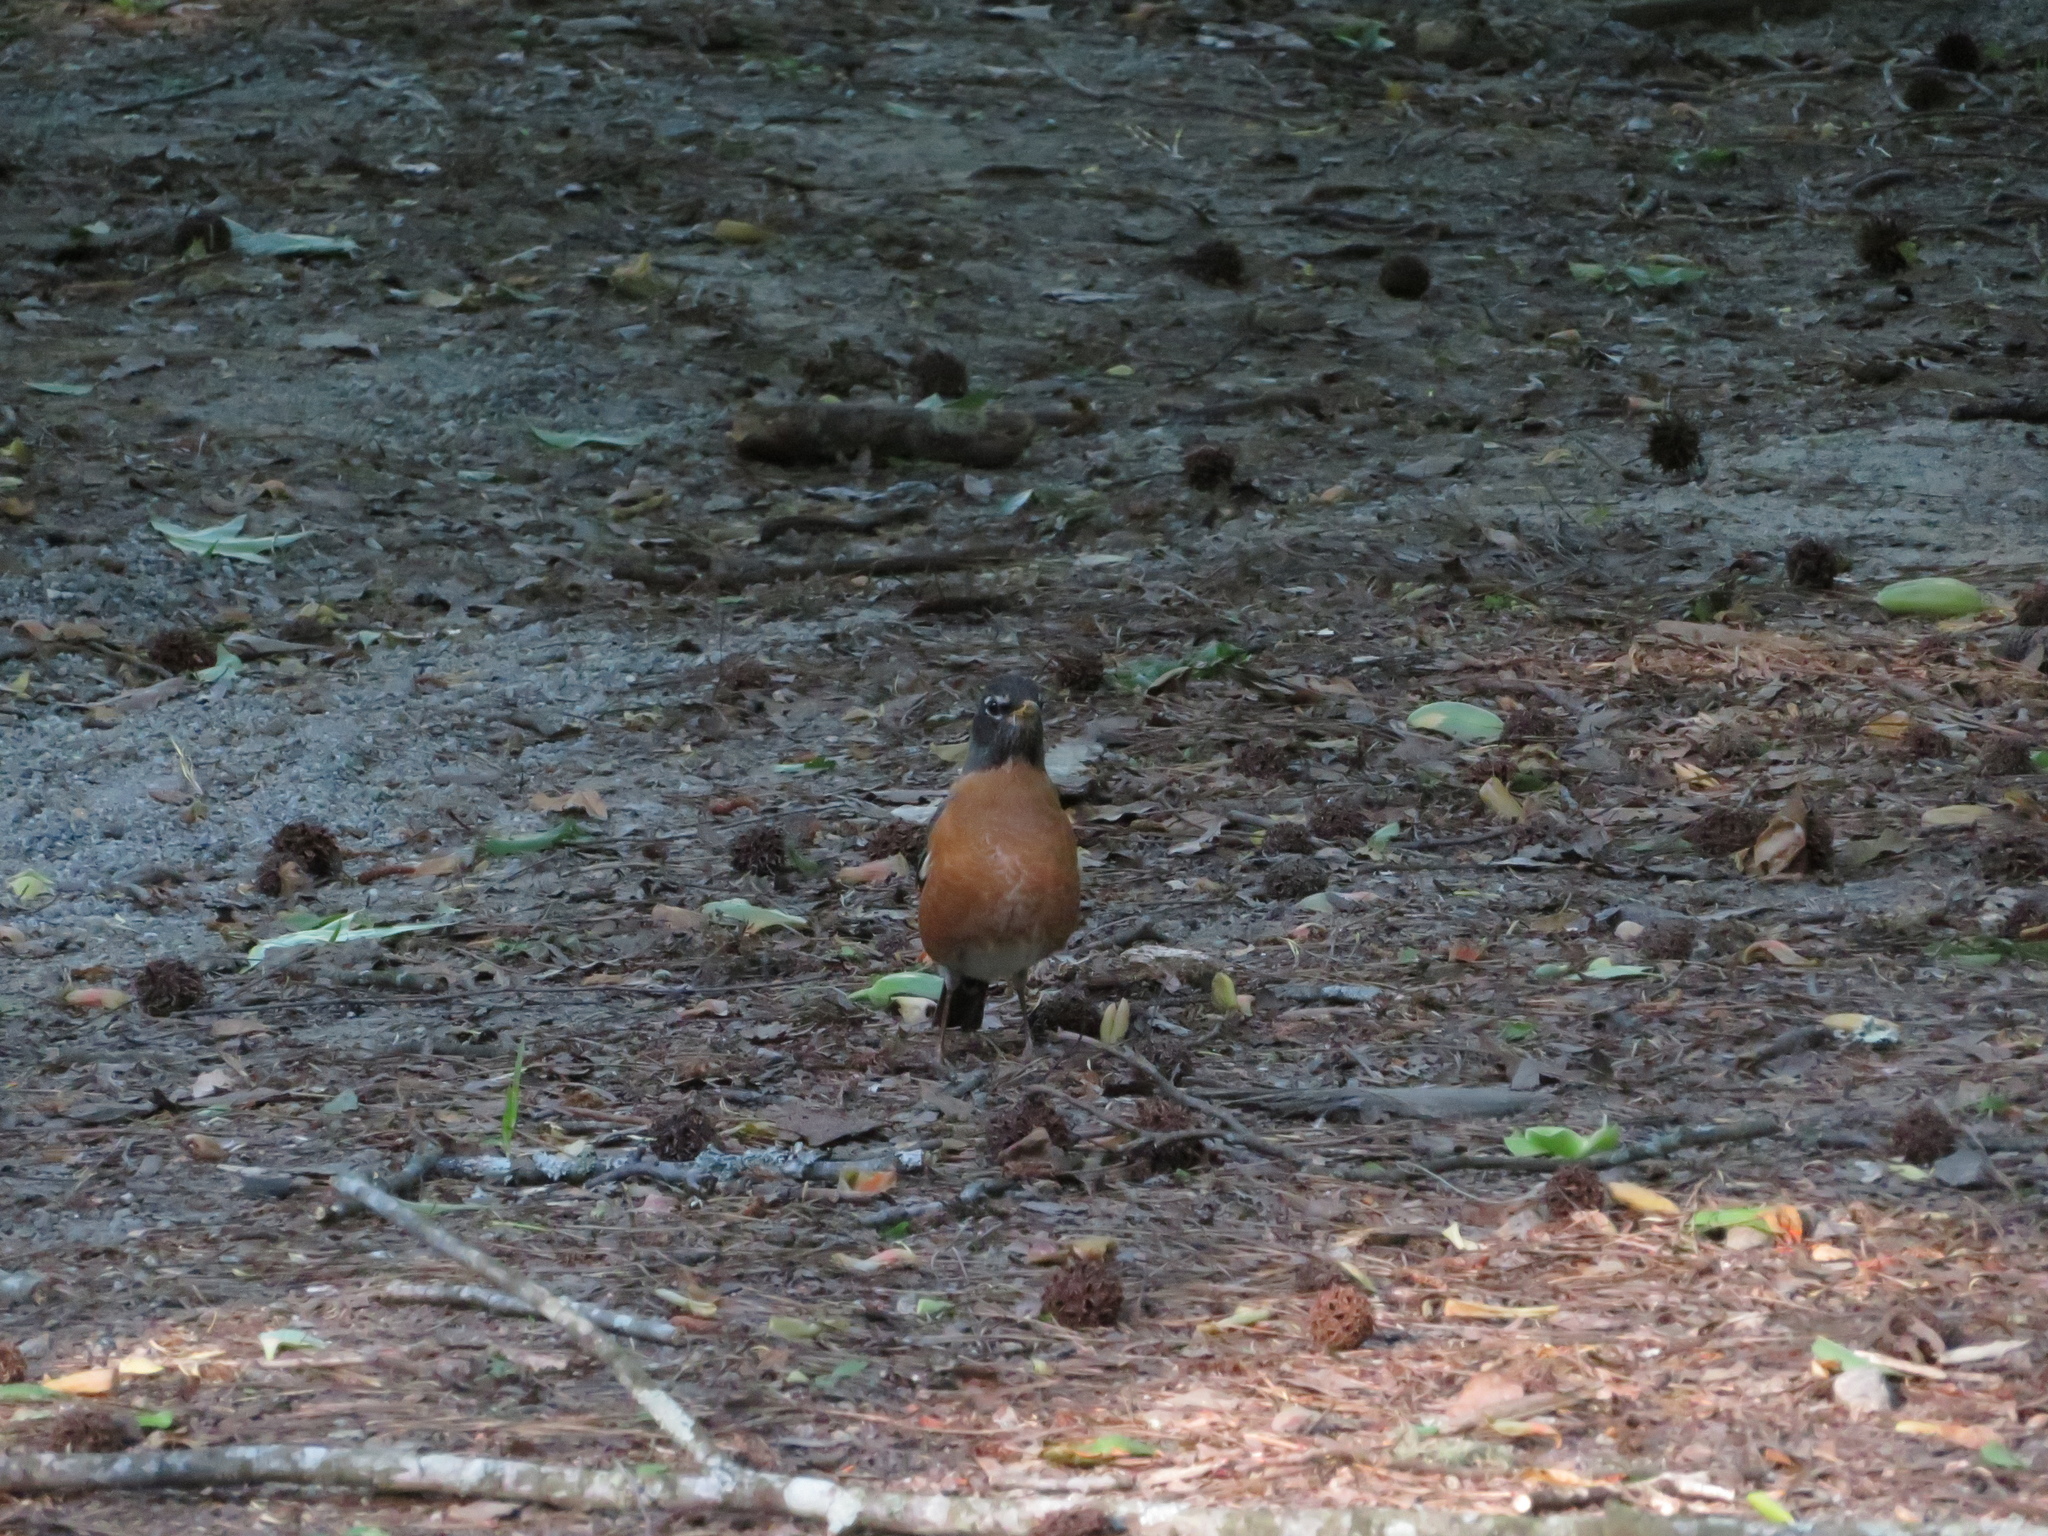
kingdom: Animalia
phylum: Chordata
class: Aves
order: Passeriformes
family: Turdidae
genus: Turdus
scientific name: Turdus migratorius
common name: American robin
